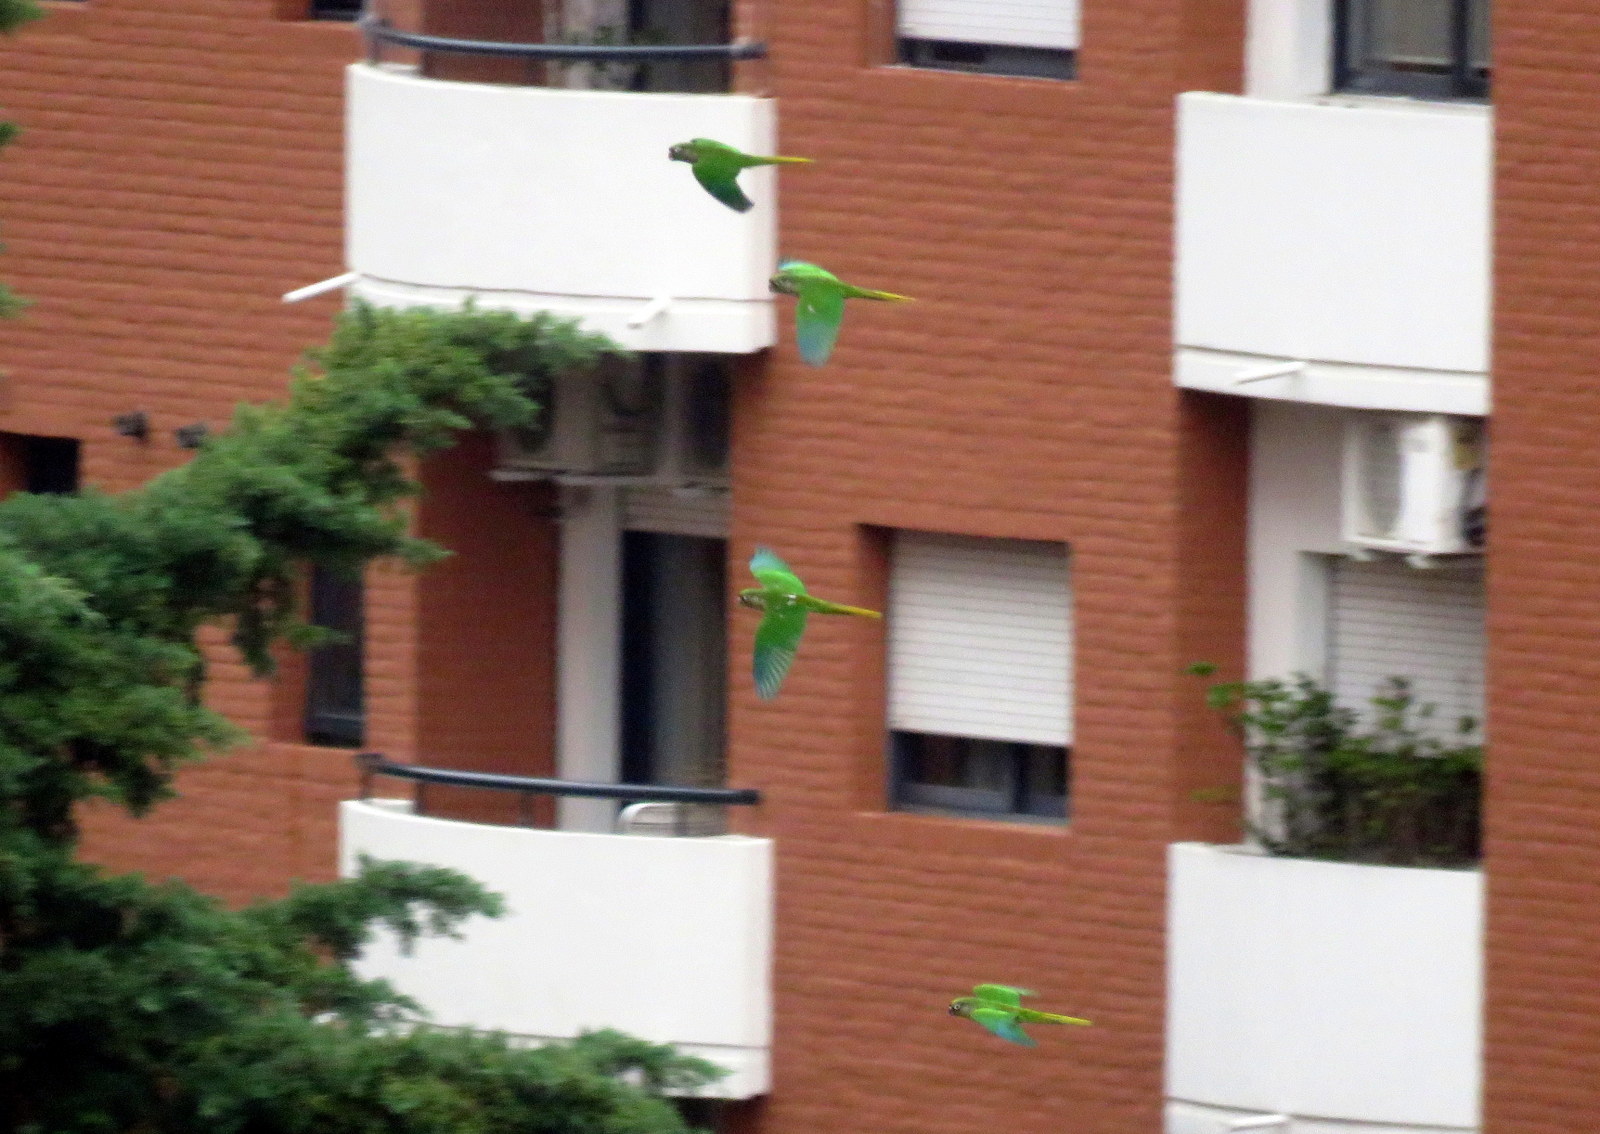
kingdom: Animalia
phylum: Chordata
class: Aves
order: Psittaciformes
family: Psittacidae
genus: Pyrrhura
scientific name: Pyrrhura frontalis
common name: Maroon-bellied parakeet
